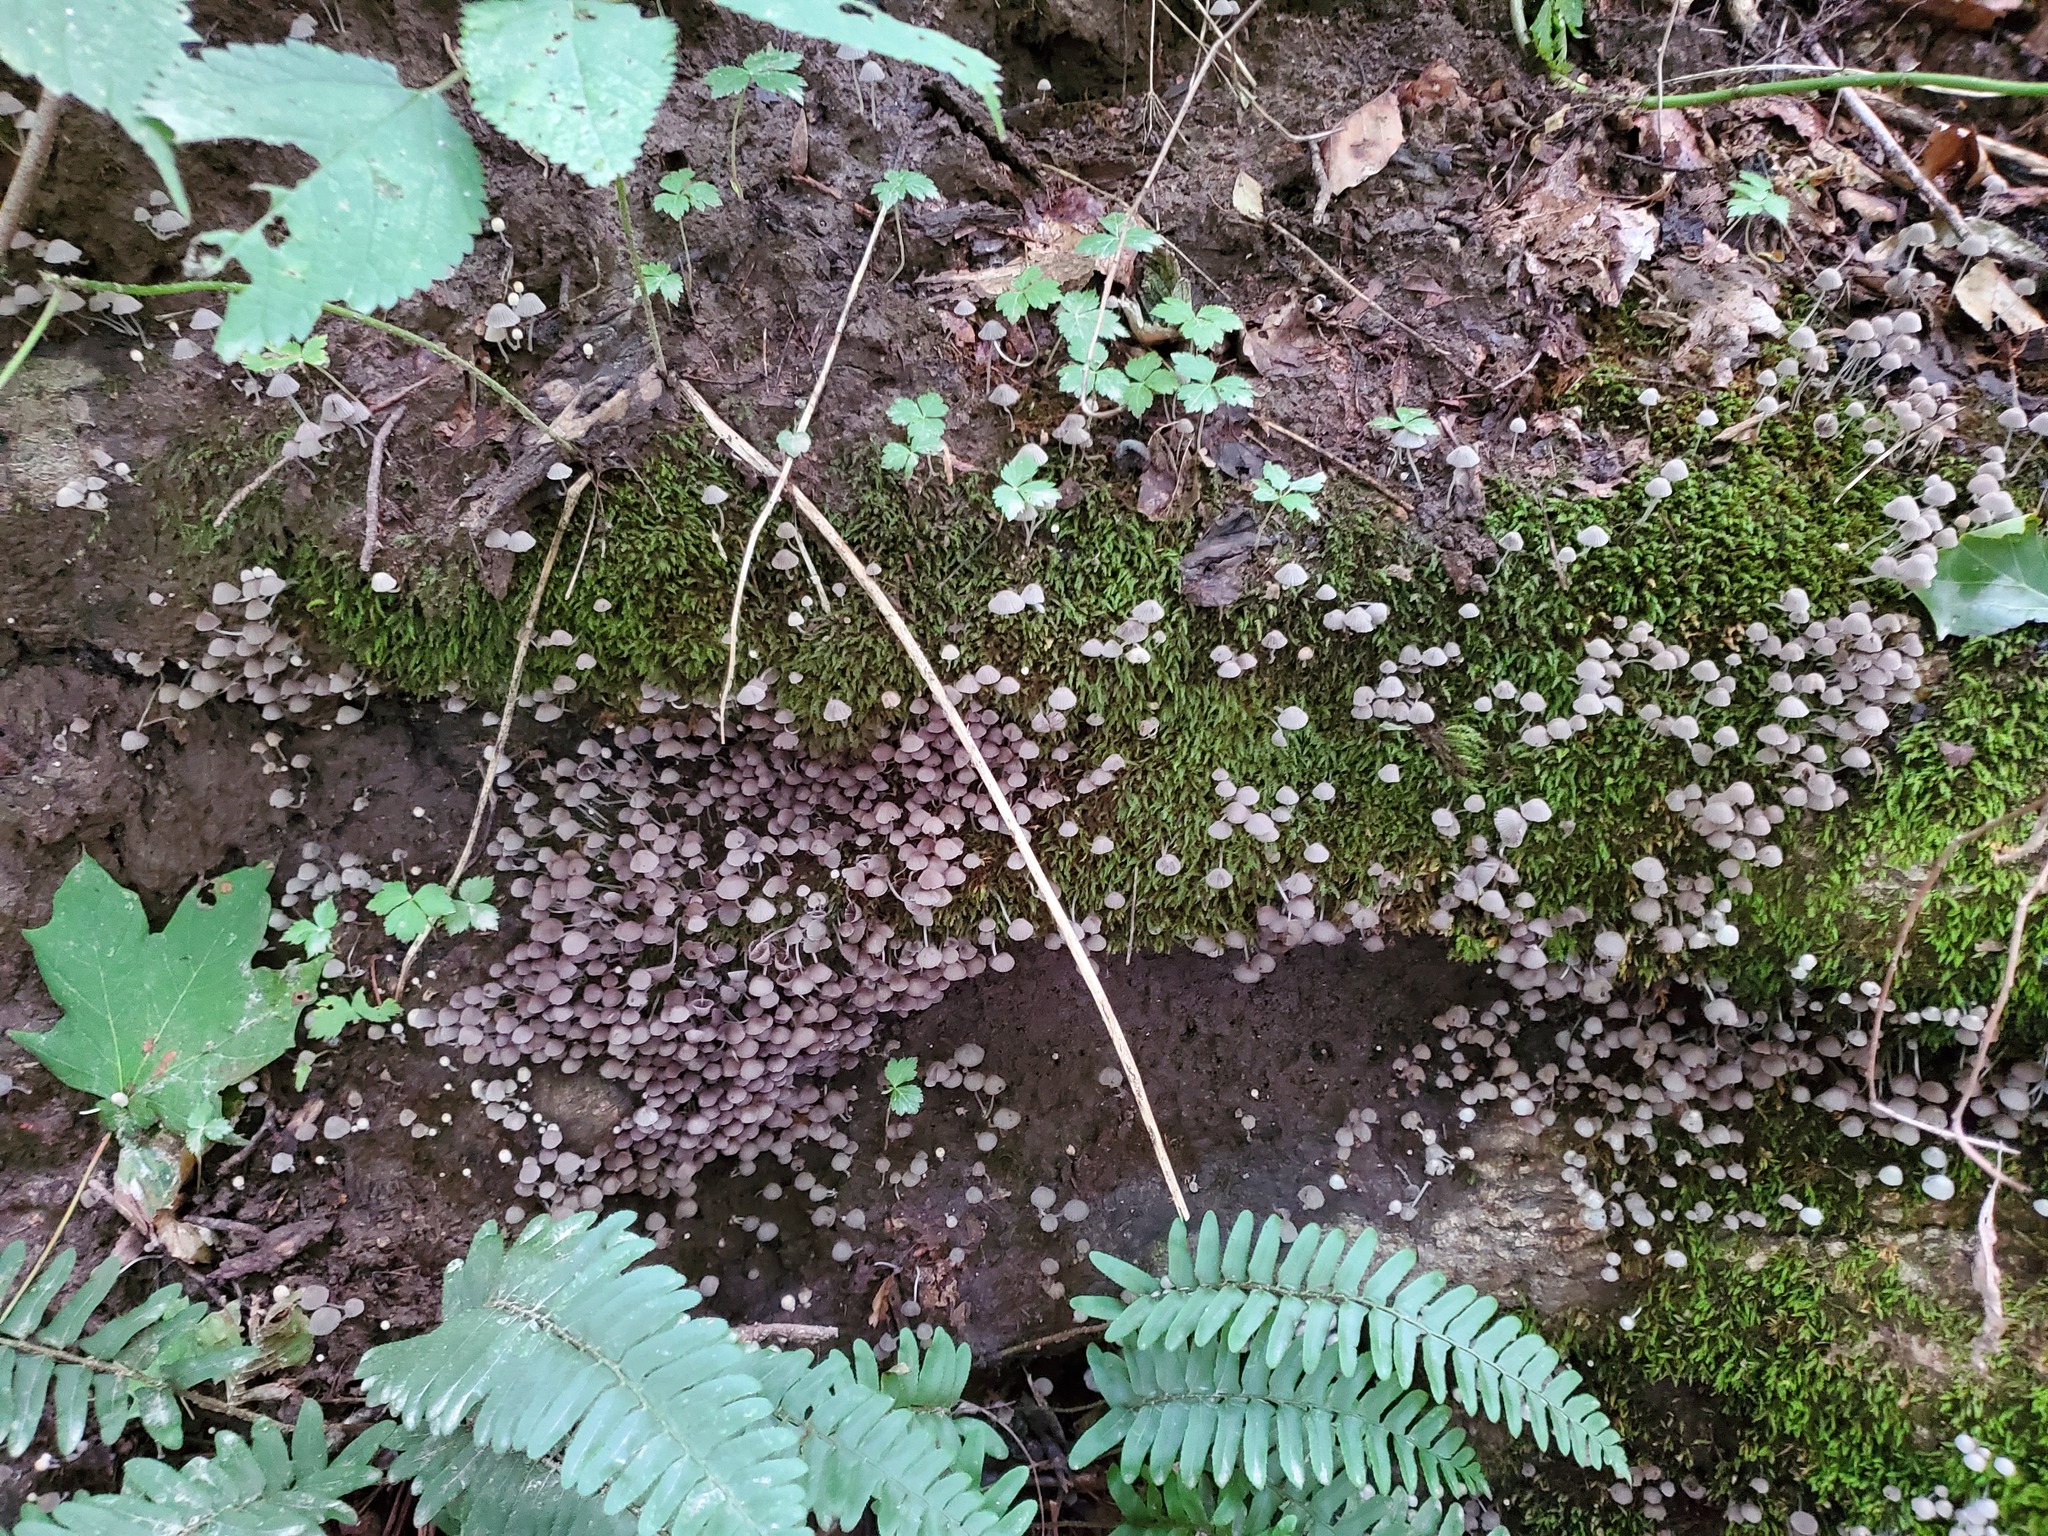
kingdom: Fungi
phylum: Basidiomycota
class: Agaricomycetes
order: Agaricales
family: Psathyrellaceae
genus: Coprinellus
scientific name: Coprinellus disseminatus
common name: Fairies' bonnets
